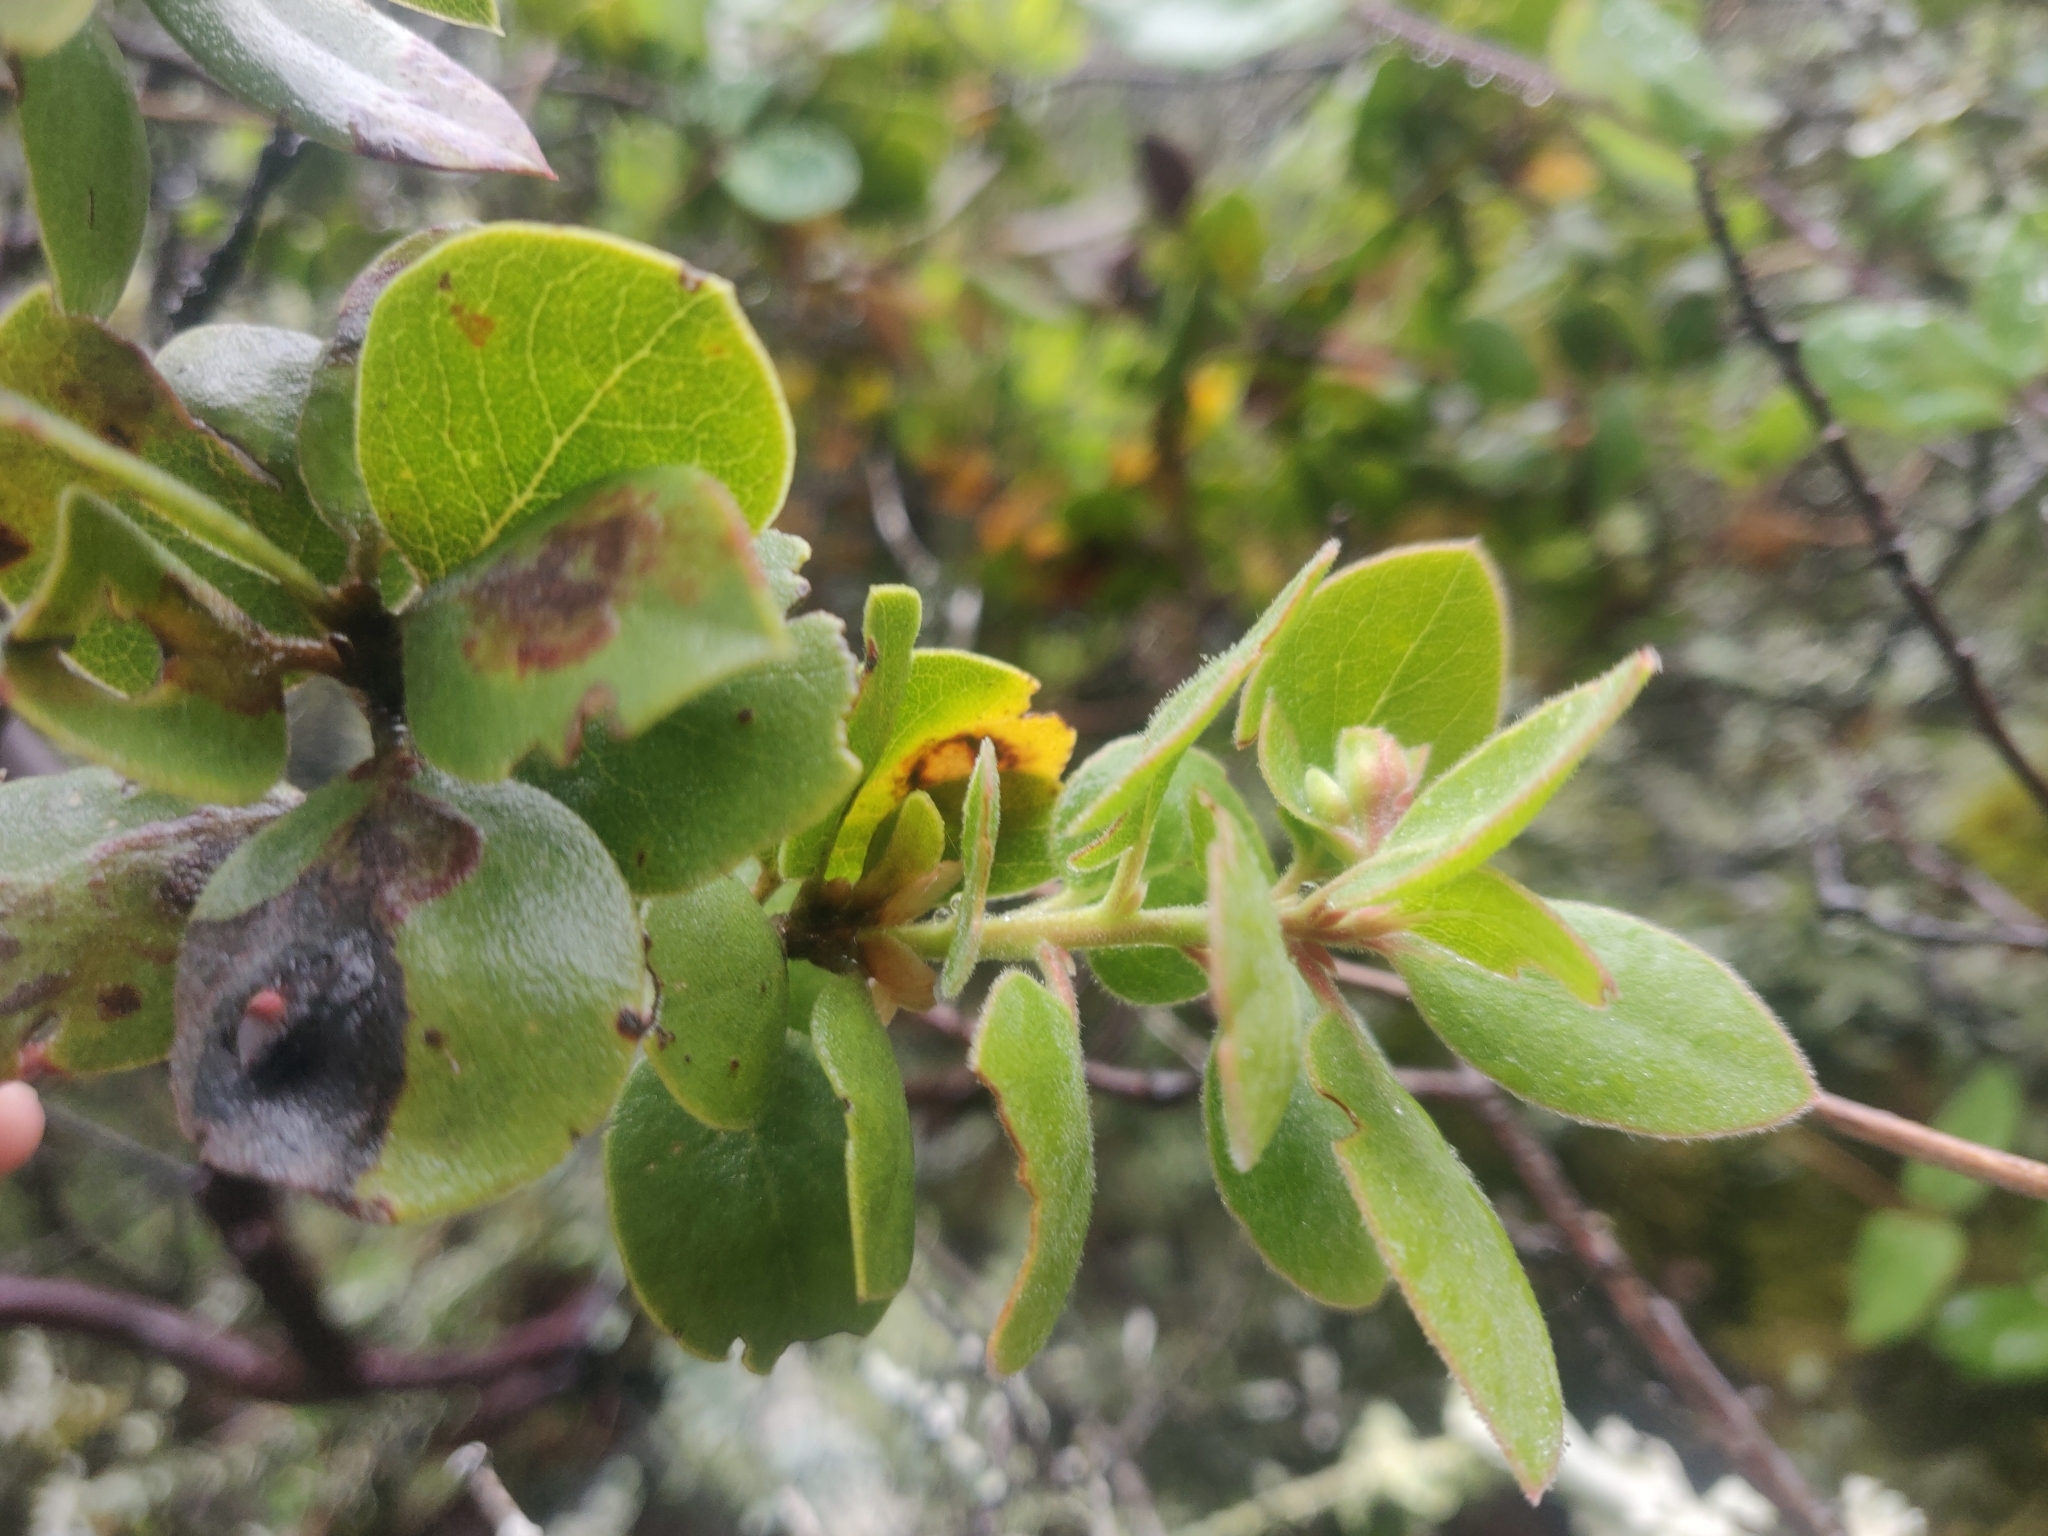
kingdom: Plantae
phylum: Tracheophyta
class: Magnoliopsida
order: Ericales
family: Ericaceae
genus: Arctostaphylos
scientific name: Arctostaphylos glandulosa
